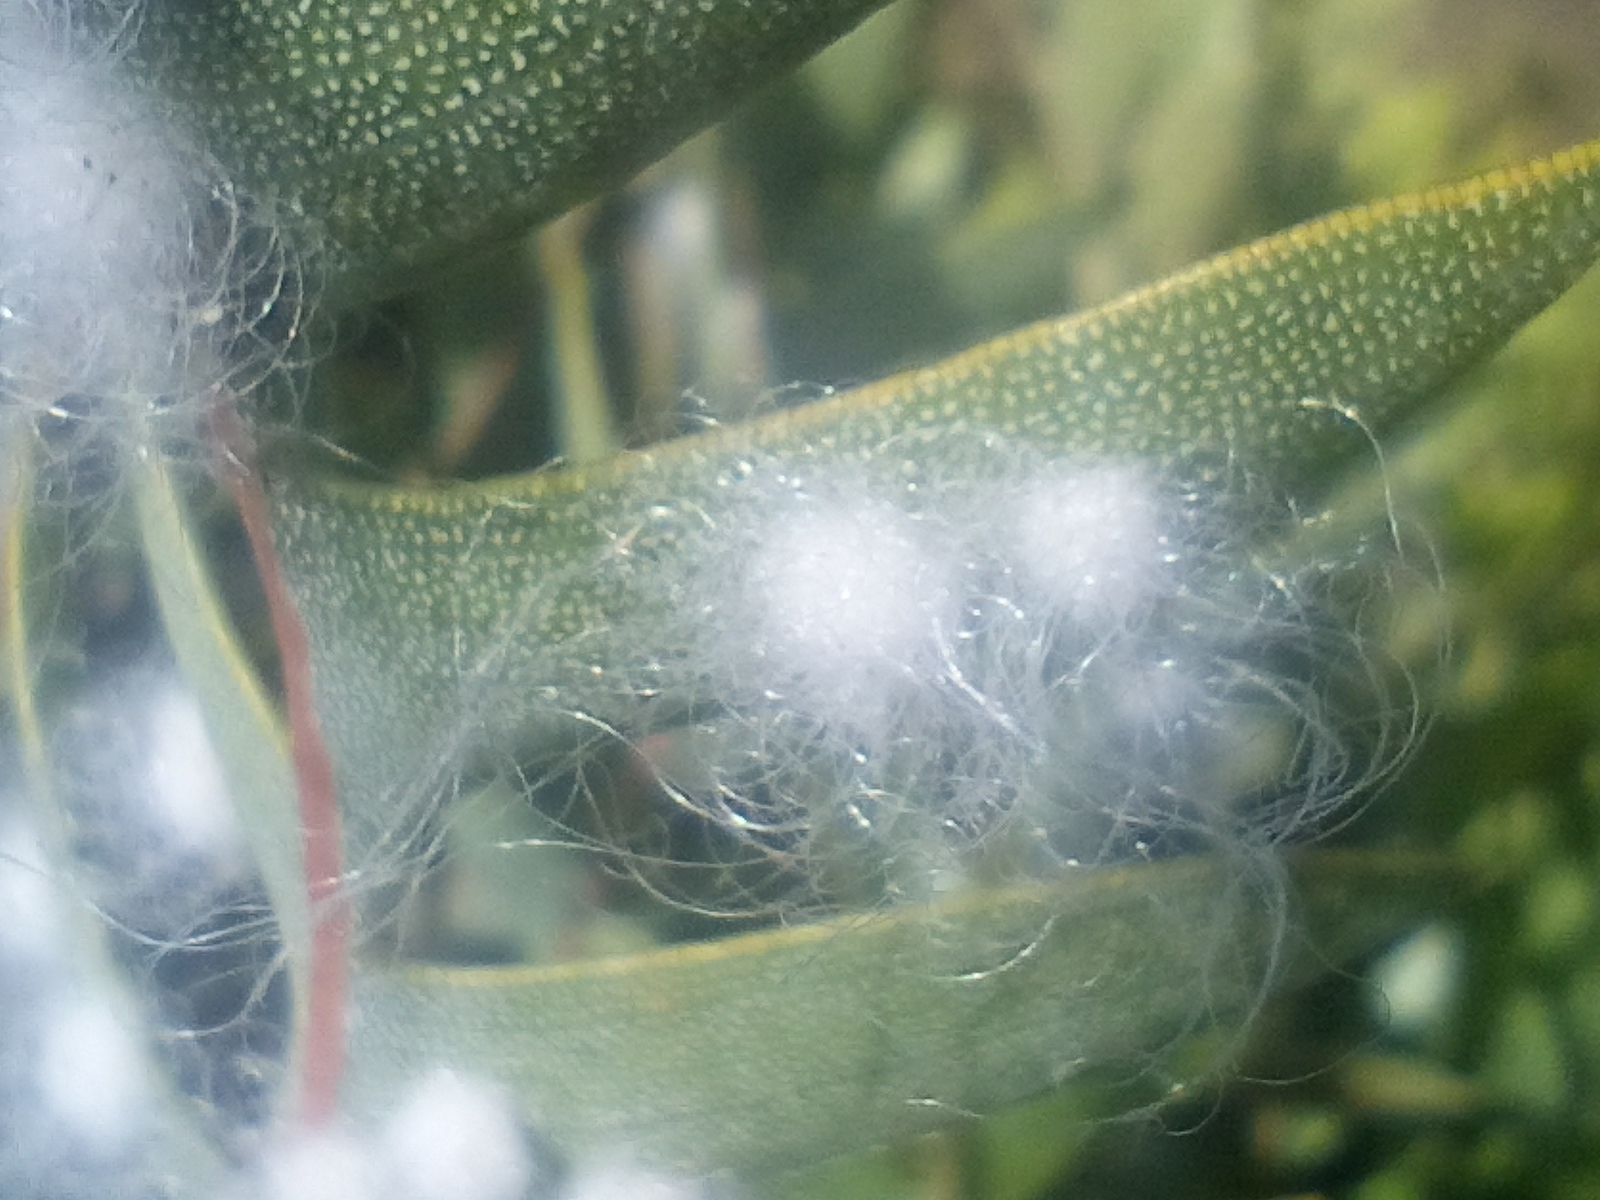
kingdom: Animalia
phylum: Arthropoda
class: Insecta
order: Hemiptera
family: Aleyrodidae
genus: Aleuroctarthrus
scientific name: Aleuroctarthrus
